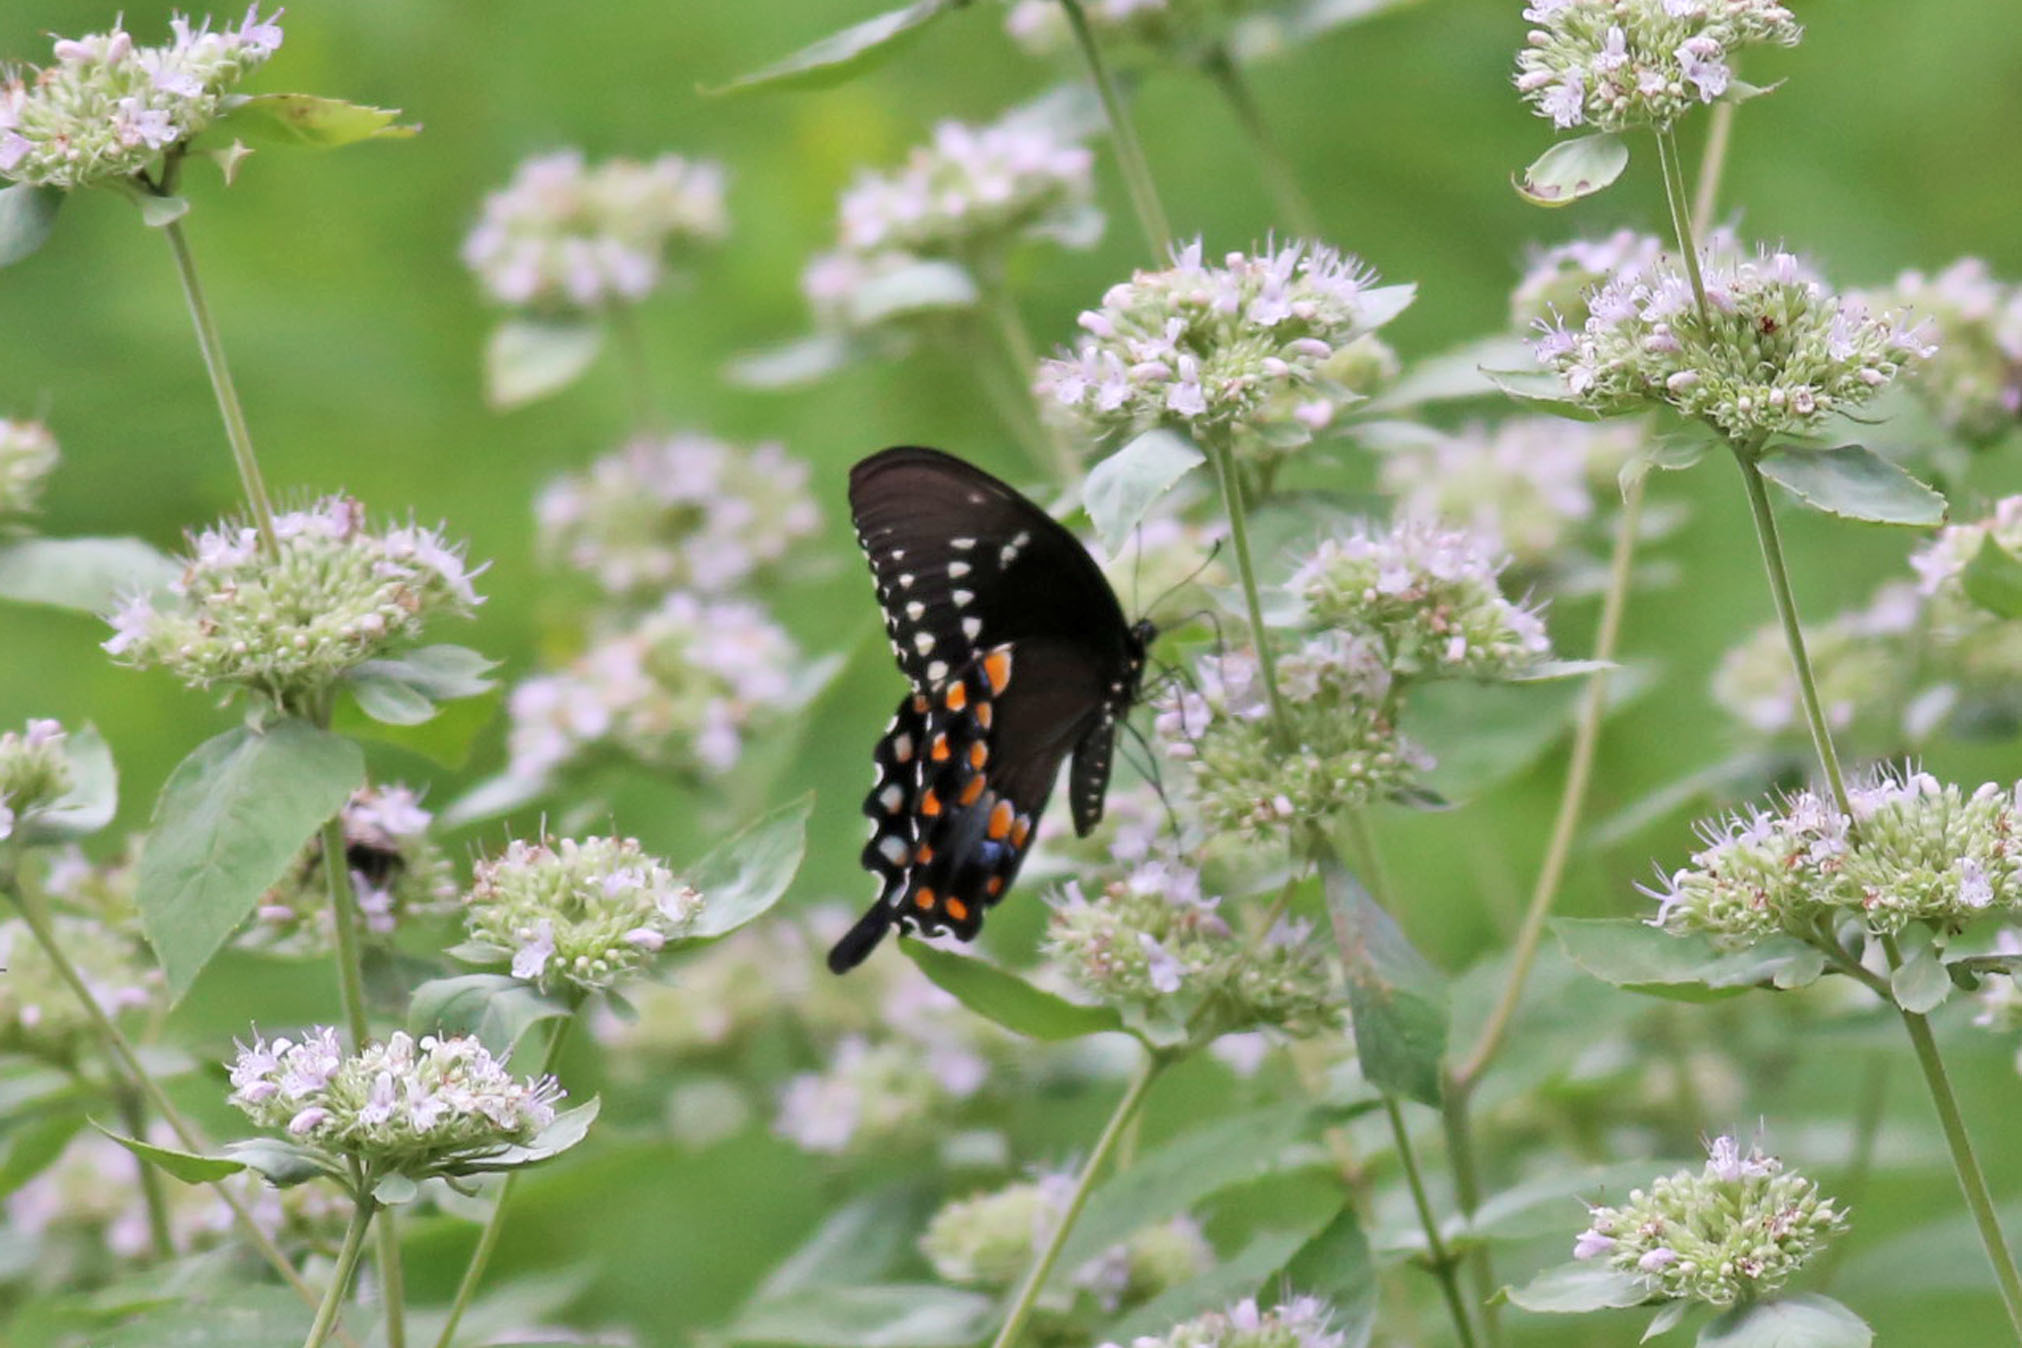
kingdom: Animalia
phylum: Arthropoda
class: Insecta
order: Lepidoptera
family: Papilionidae
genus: Papilio
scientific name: Papilio troilus
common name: Spicebush swallowtail
